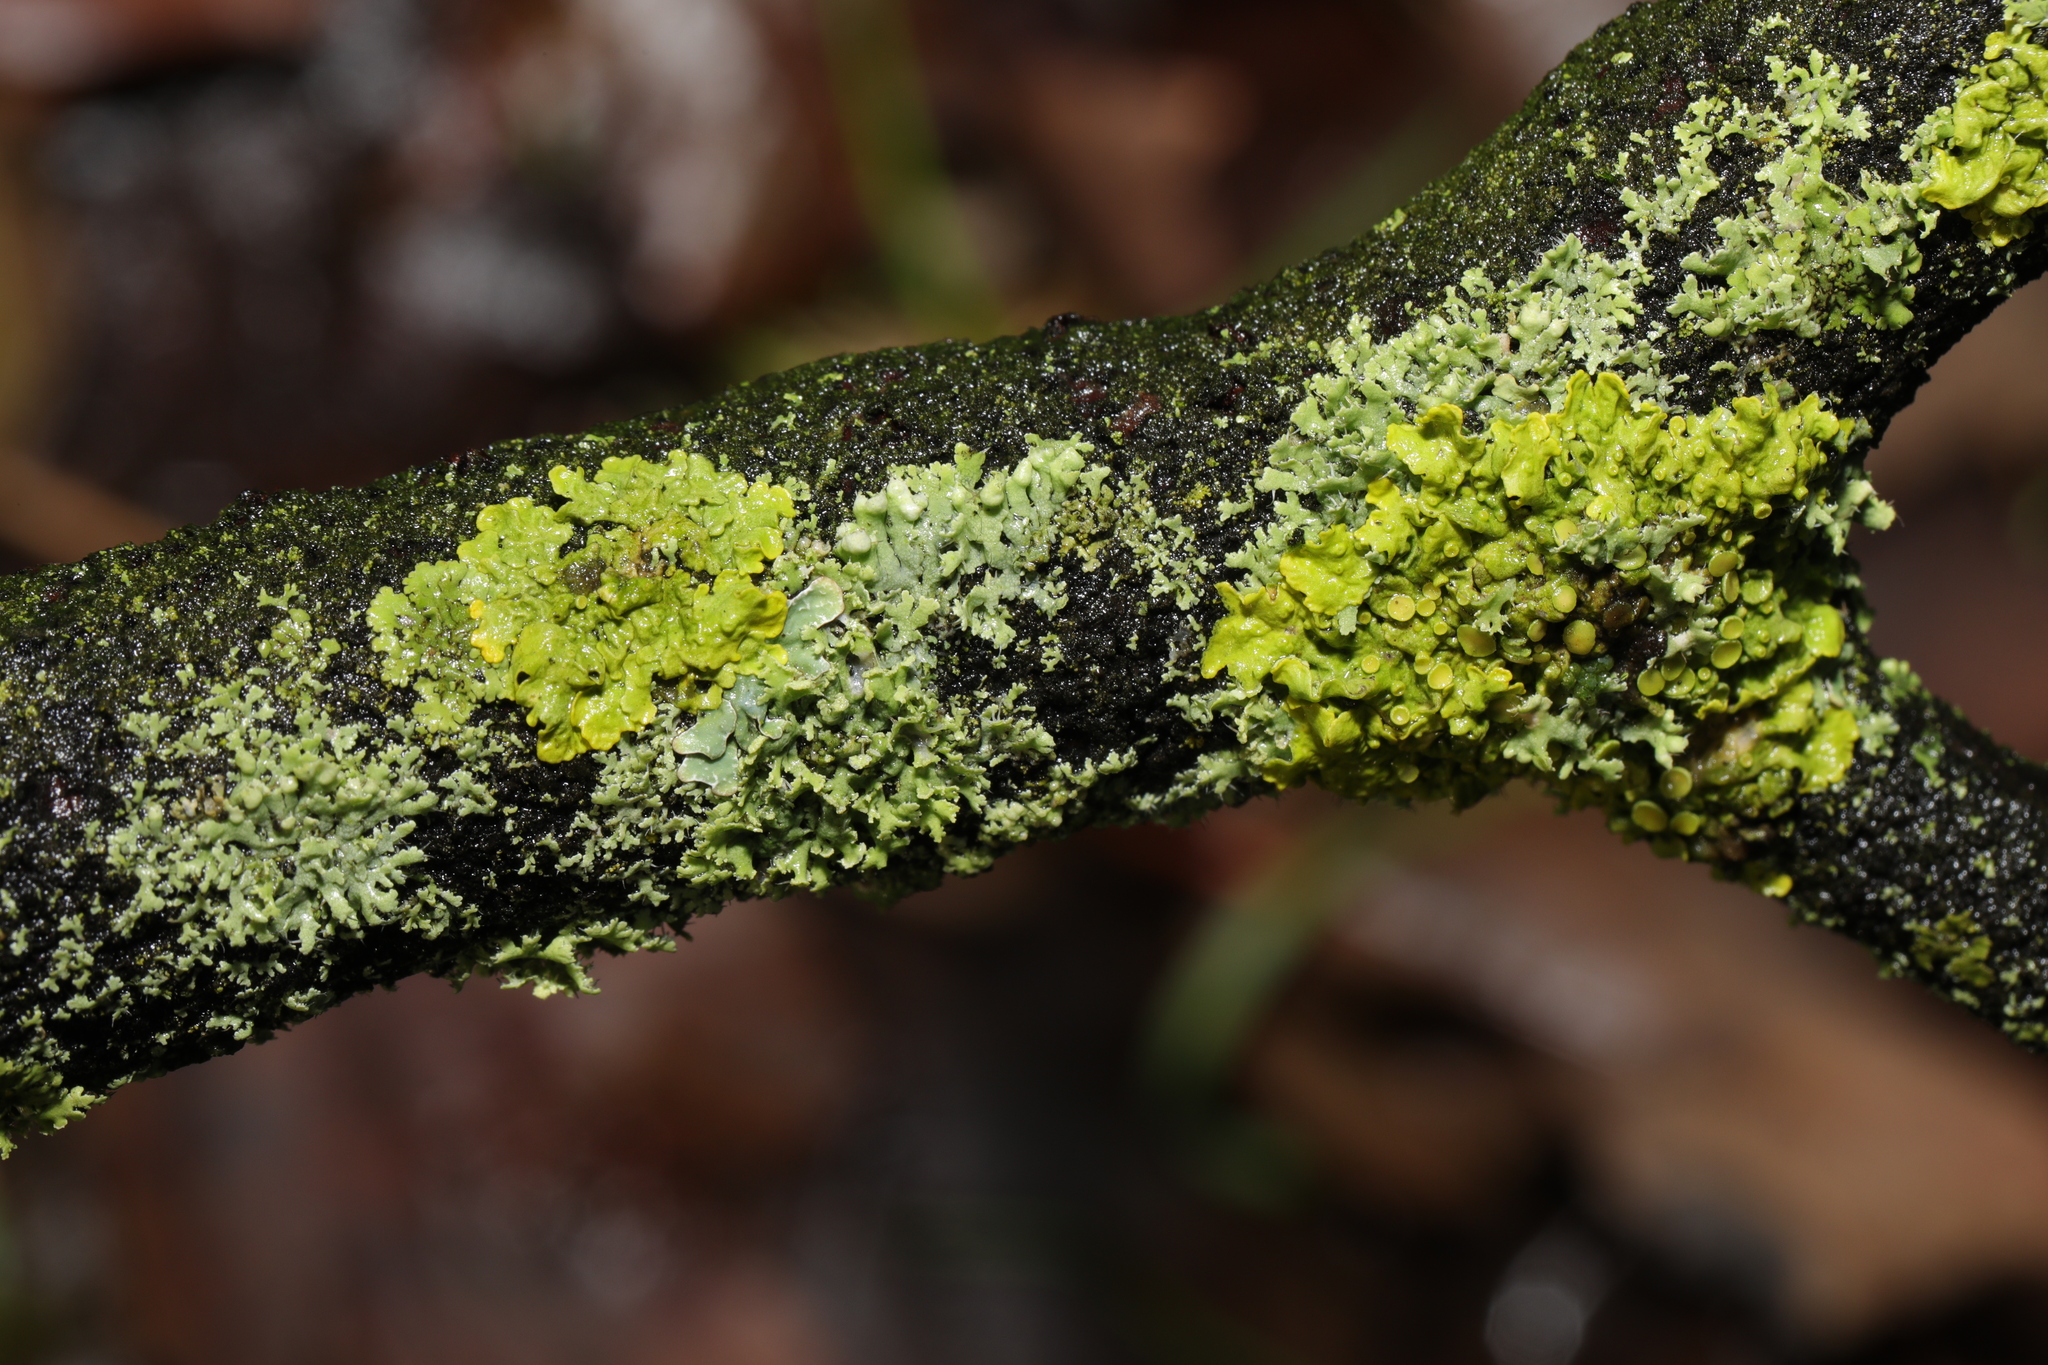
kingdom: Fungi
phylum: Ascomycota
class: Lecanoromycetes
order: Teloschistales
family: Teloschistaceae
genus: Xanthoria
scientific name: Xanthoria parietina
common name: Common orange lichen
